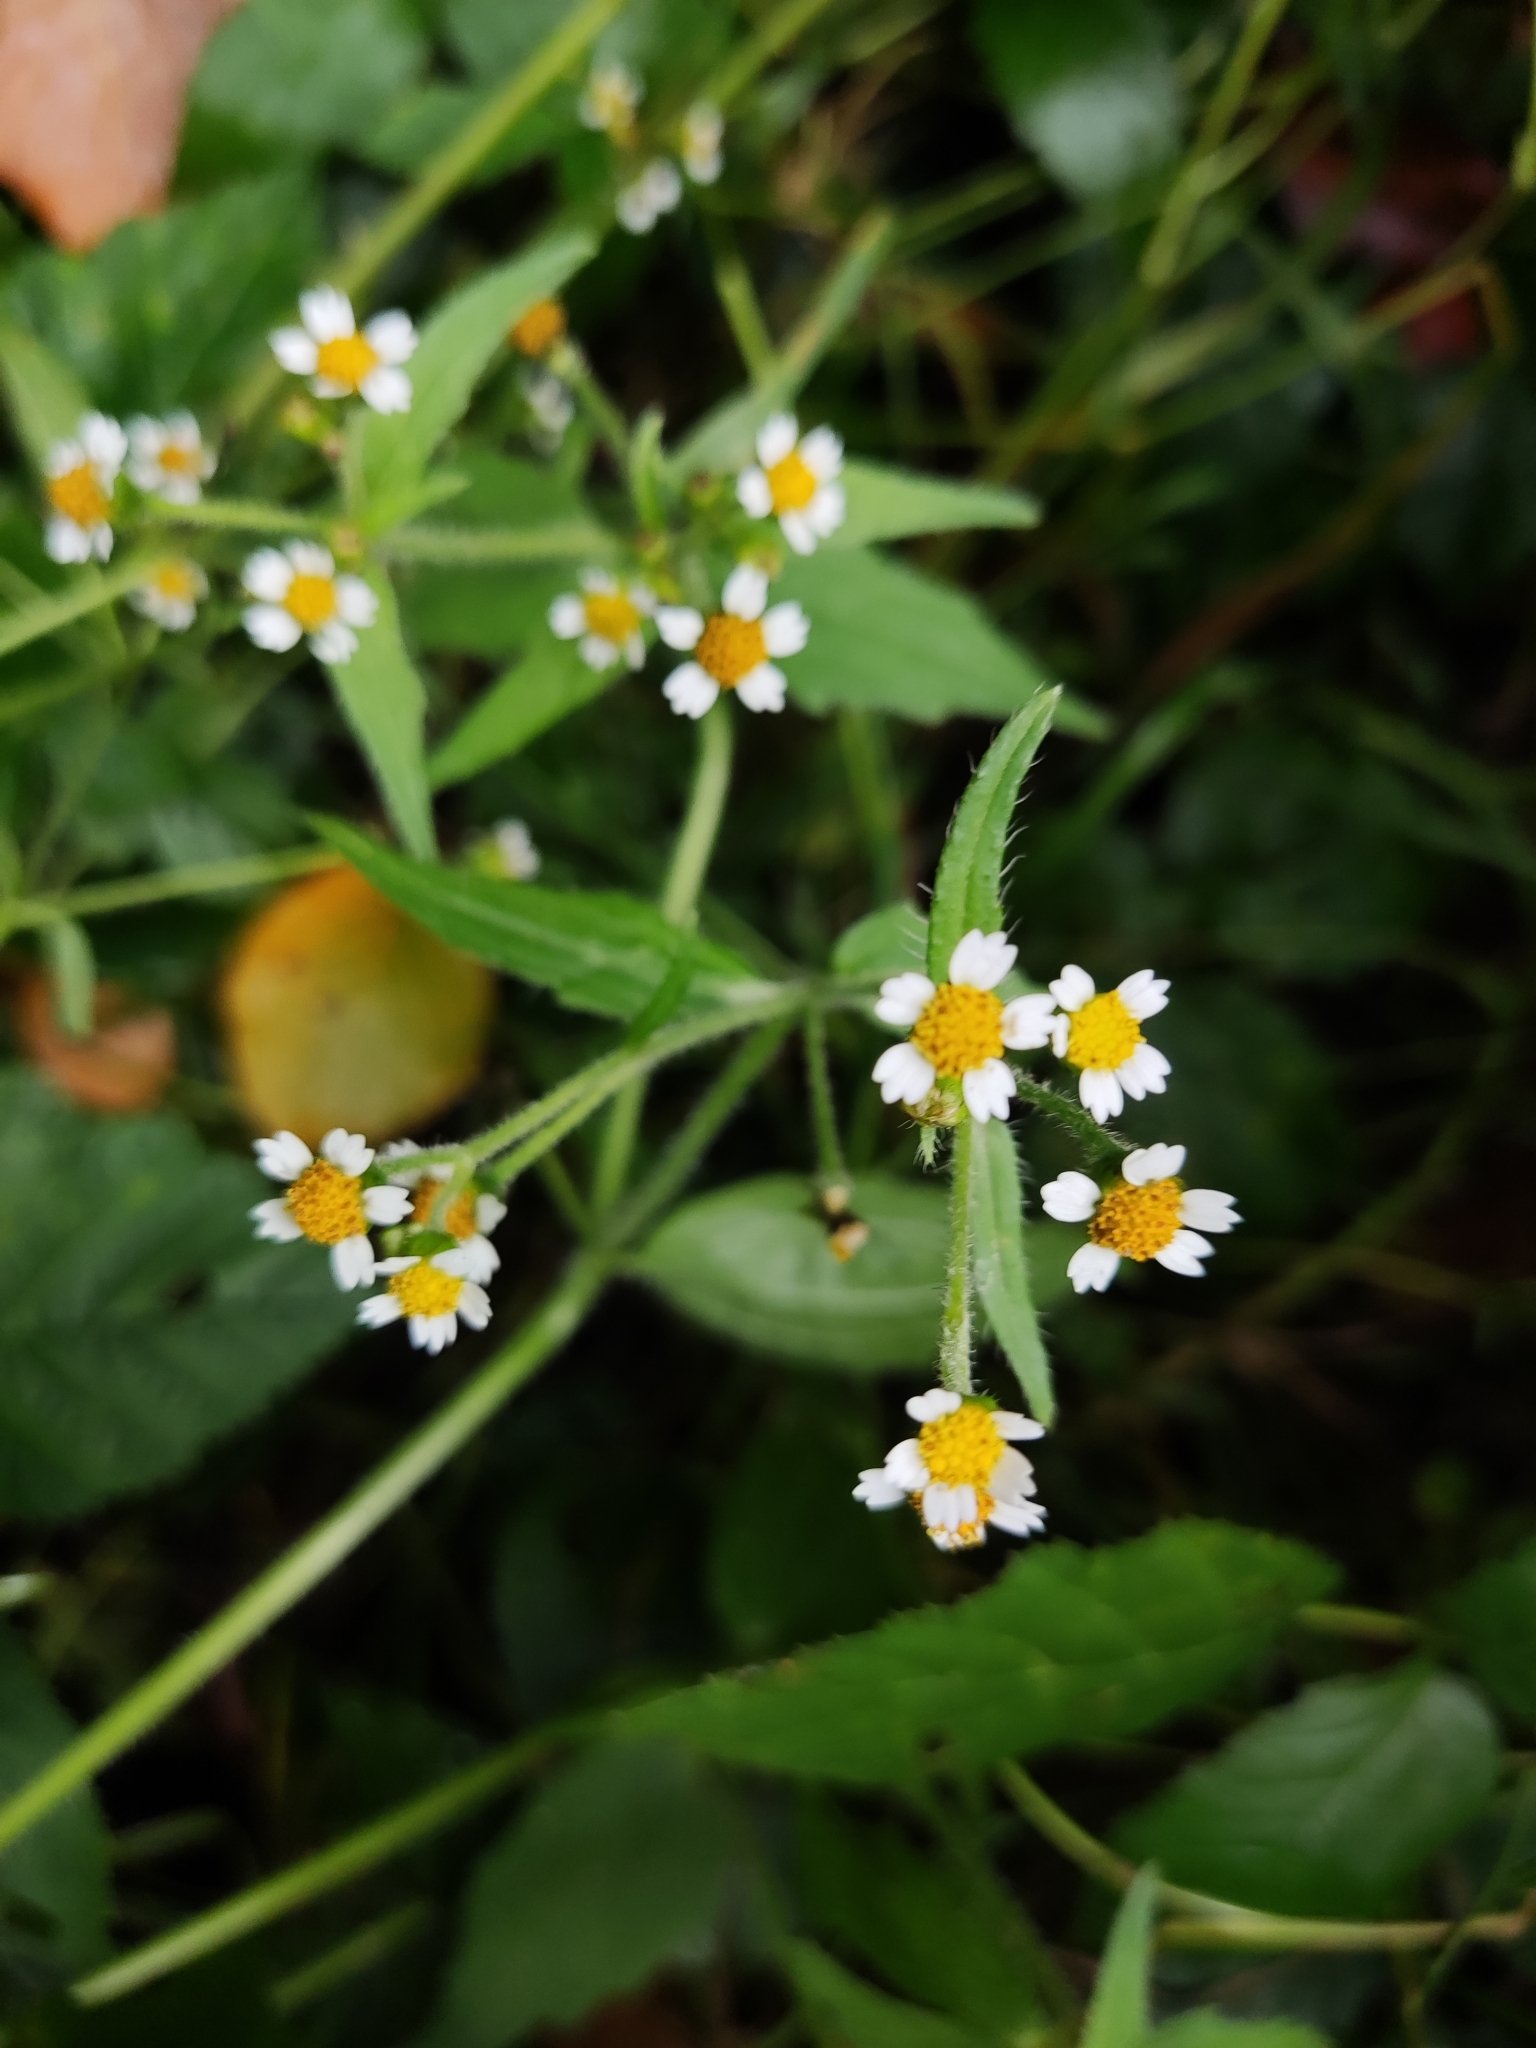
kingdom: Plantae
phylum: Tracheophyta
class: Magnoliopsida
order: Asterales
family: Asteraceae
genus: Galinsoga
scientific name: Galinsoga quadriradiata
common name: Shaggy soldier
